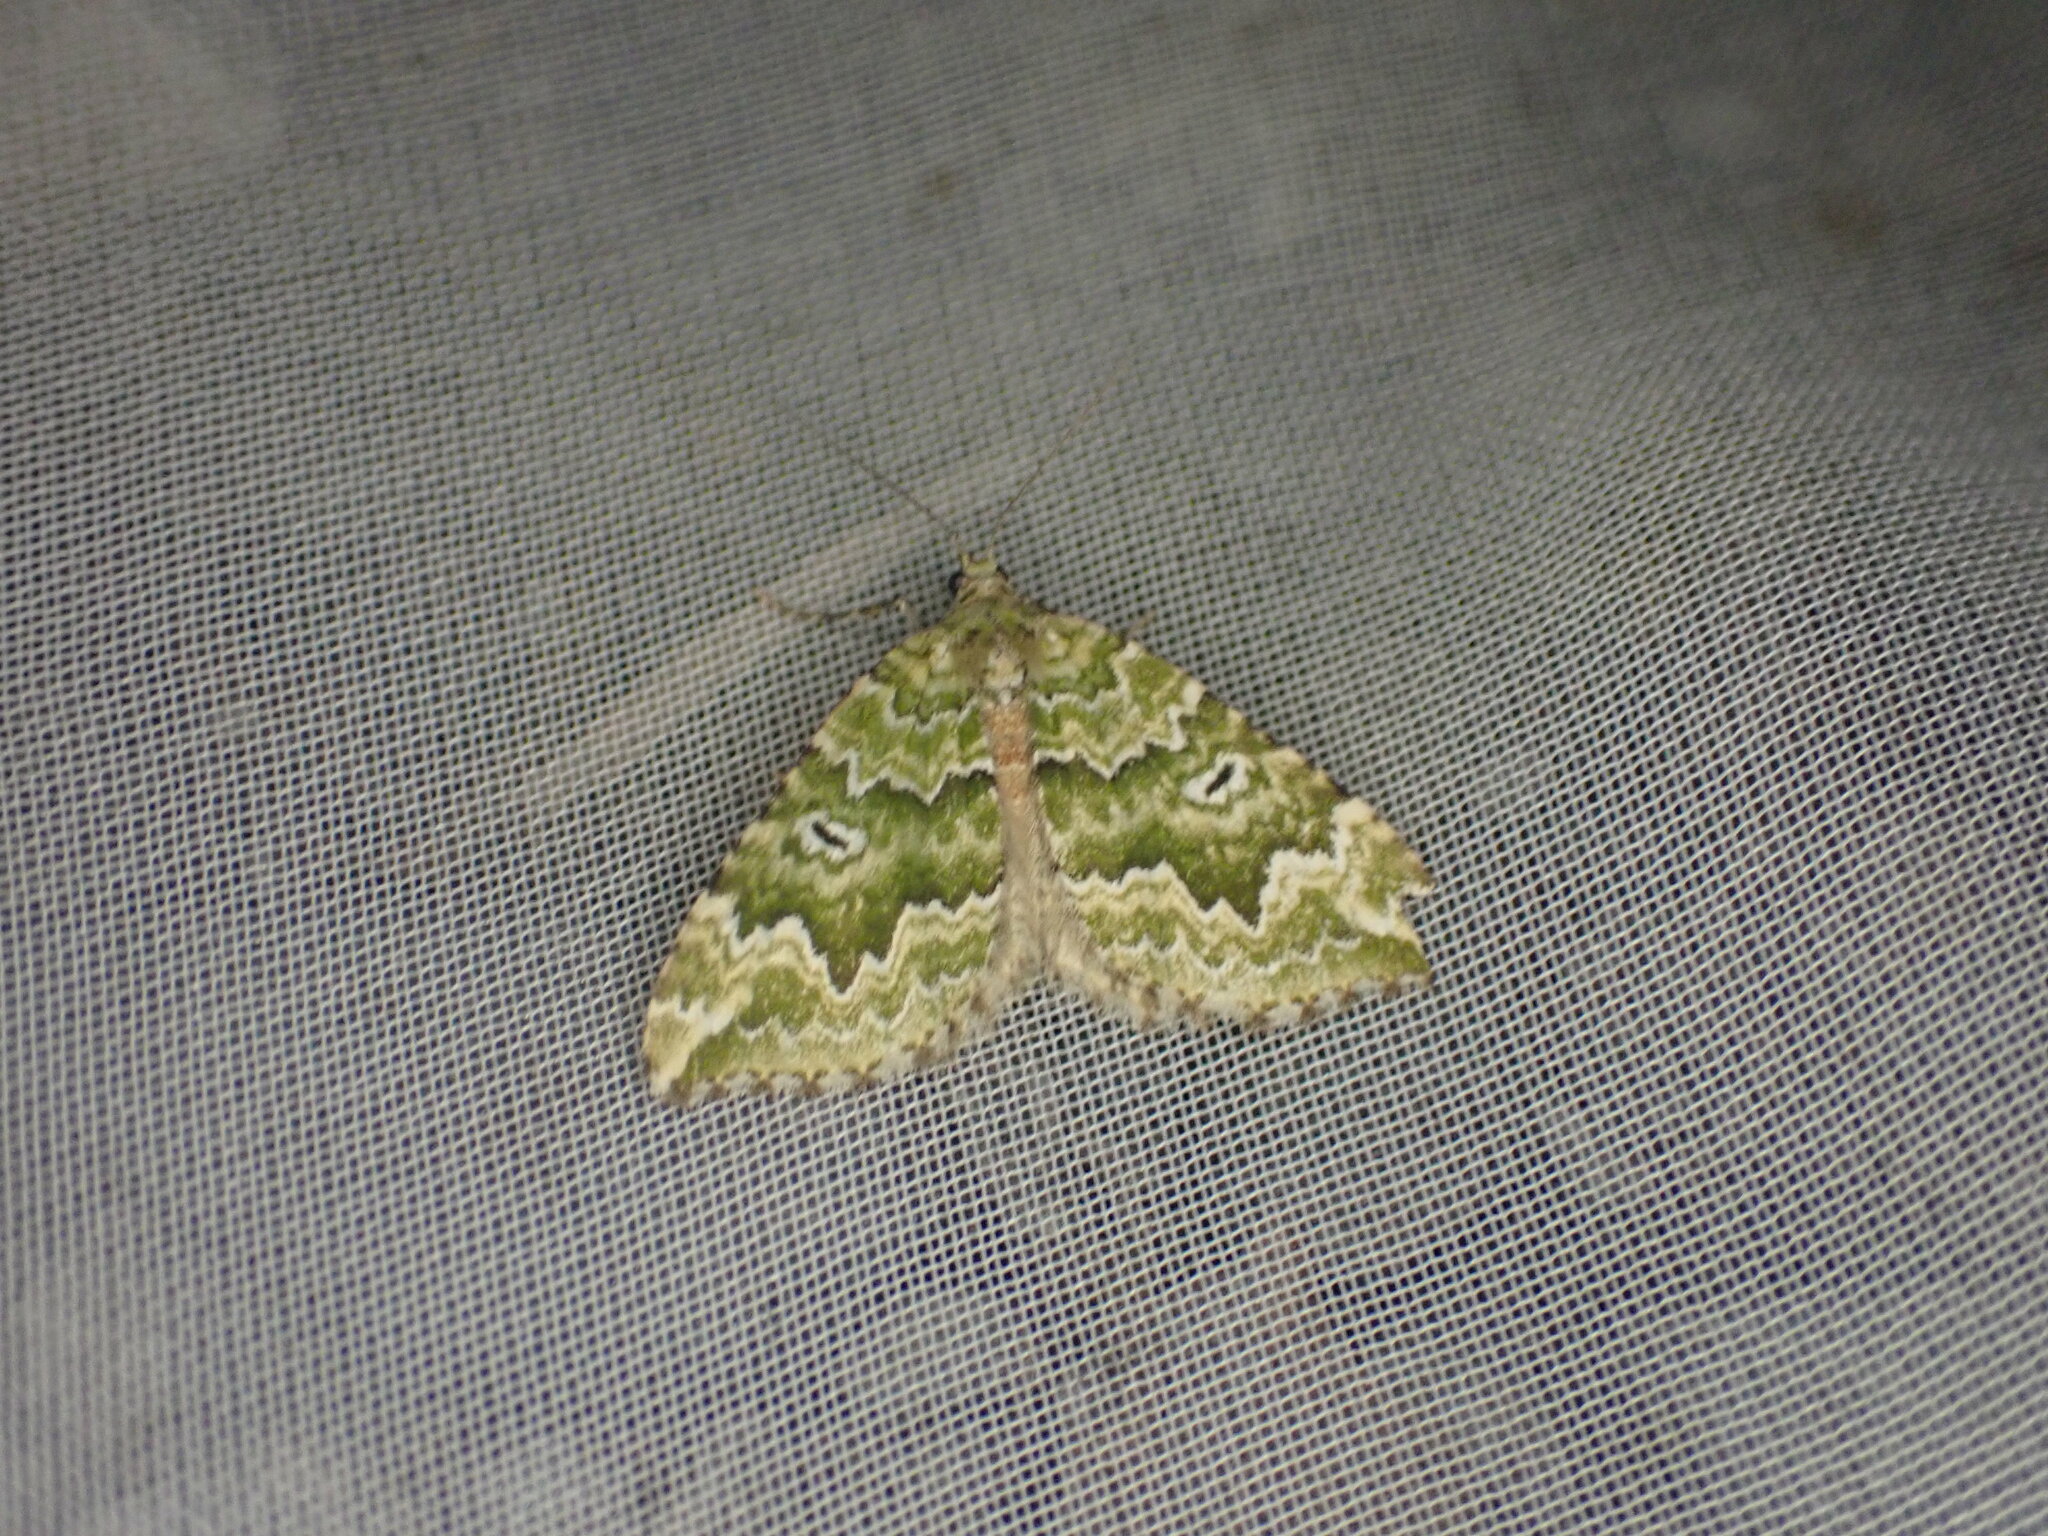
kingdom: Animalia
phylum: Arthropoda
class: Insecta
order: Lepidoptera
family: Geometridae
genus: Asaphodes
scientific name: Asaphodes beata
